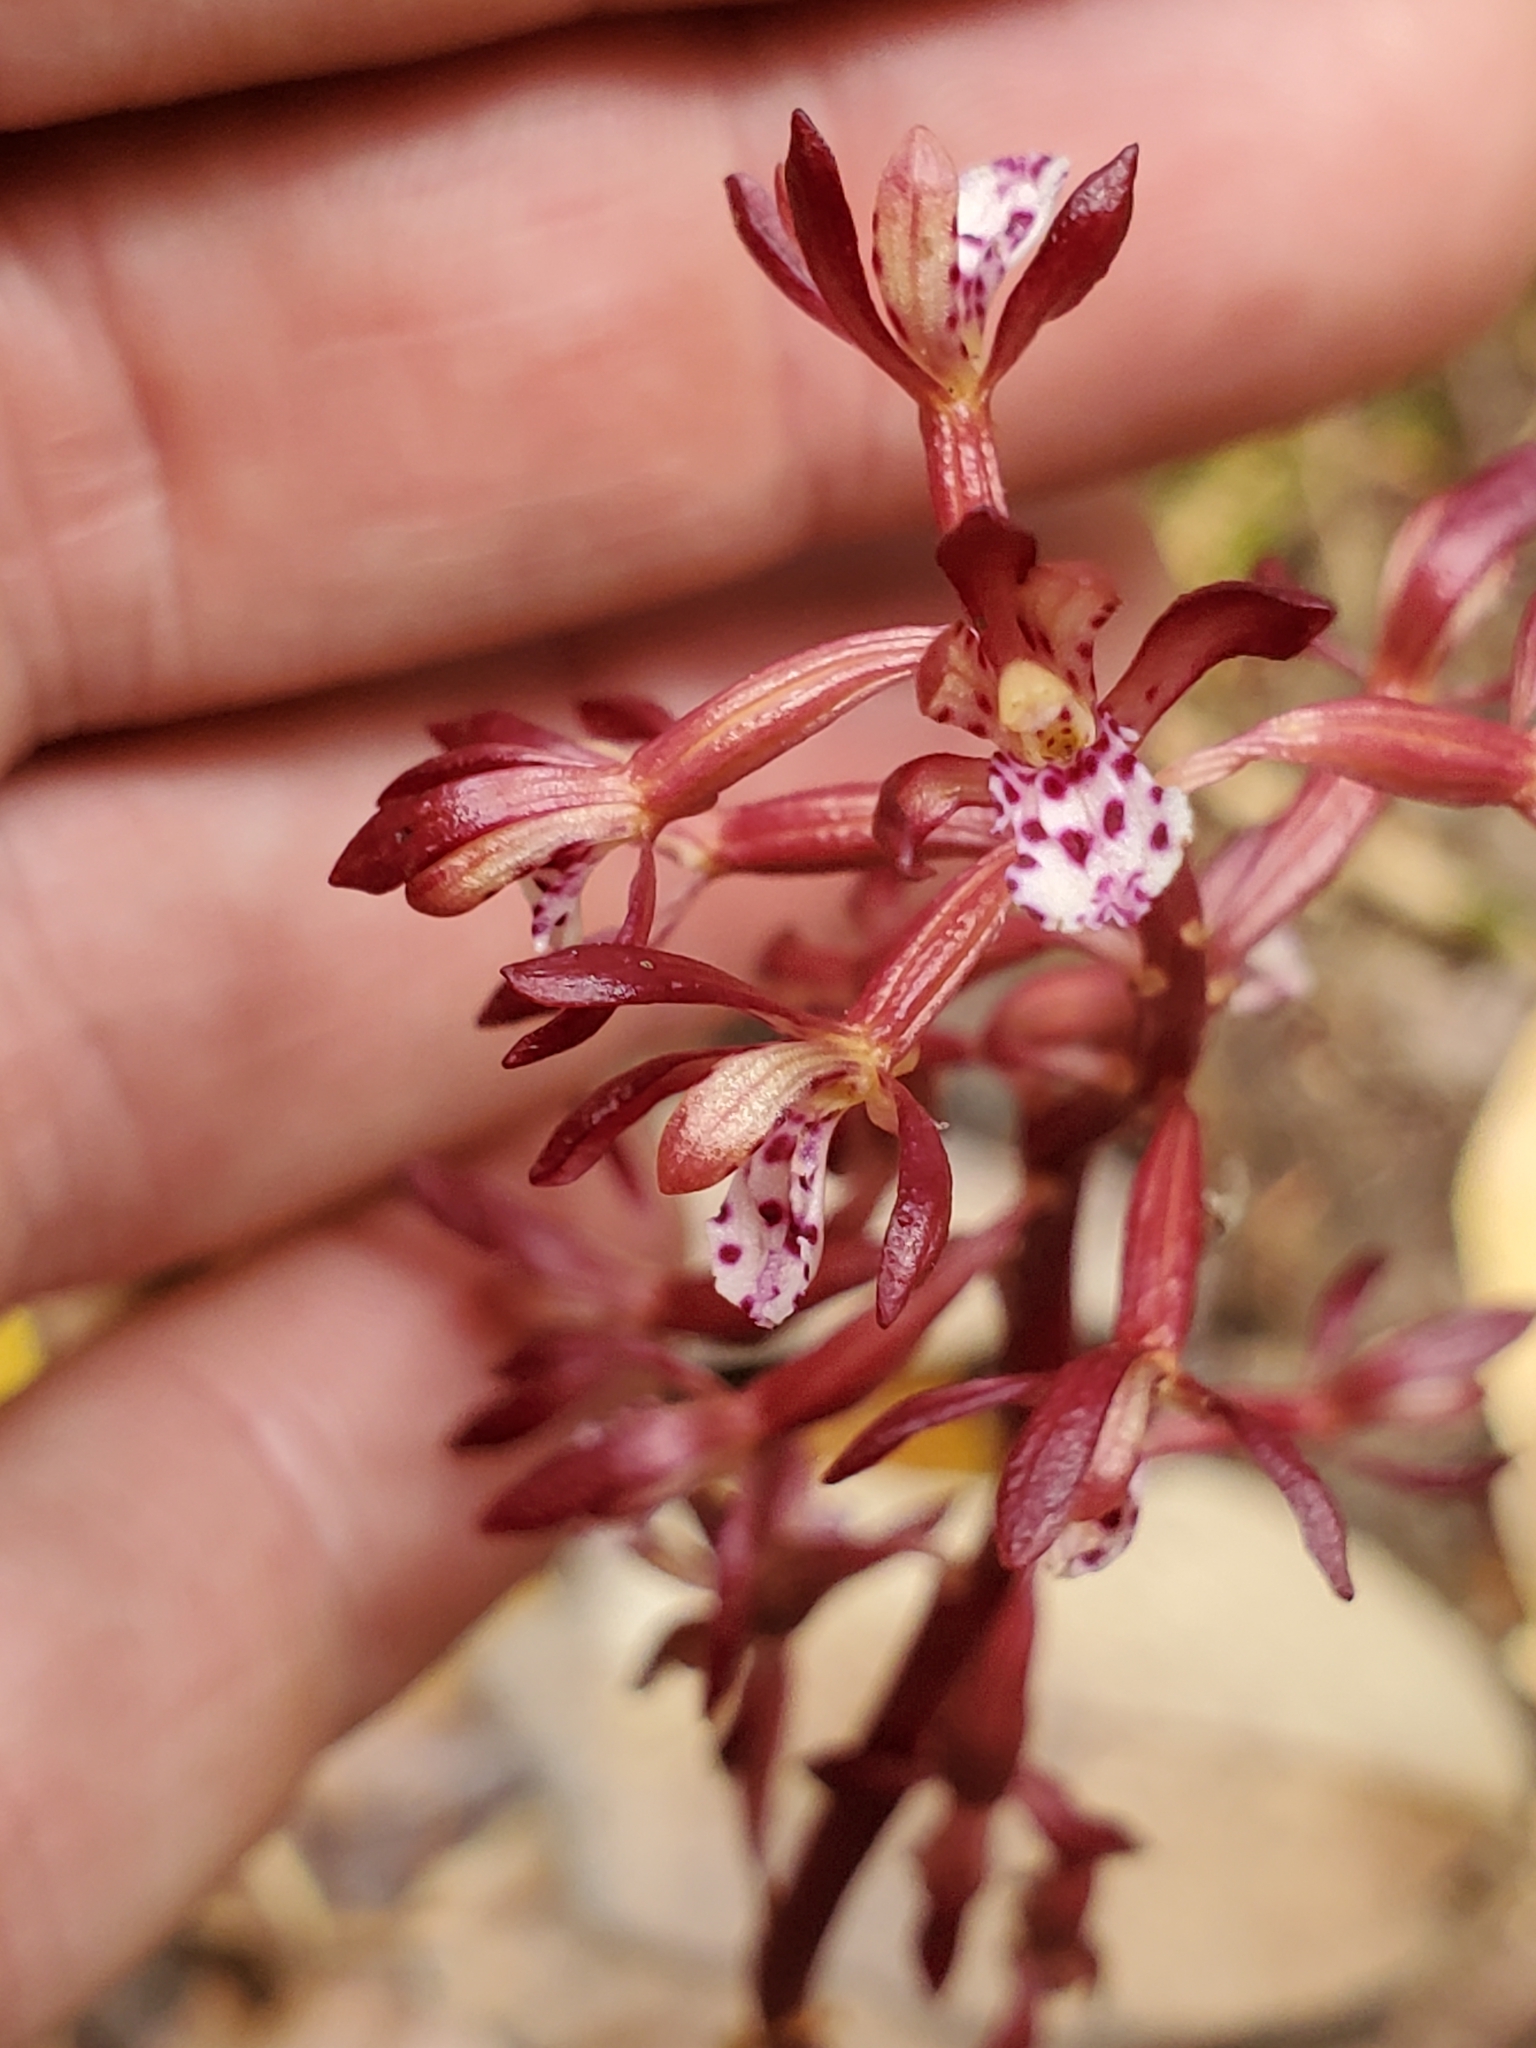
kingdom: Plantae
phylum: Tracheophyta
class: Liliopsida
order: Asparagales
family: Orchidaceae
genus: Corallorhiza
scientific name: Corallorhiza maculata
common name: Spotted coralroot
